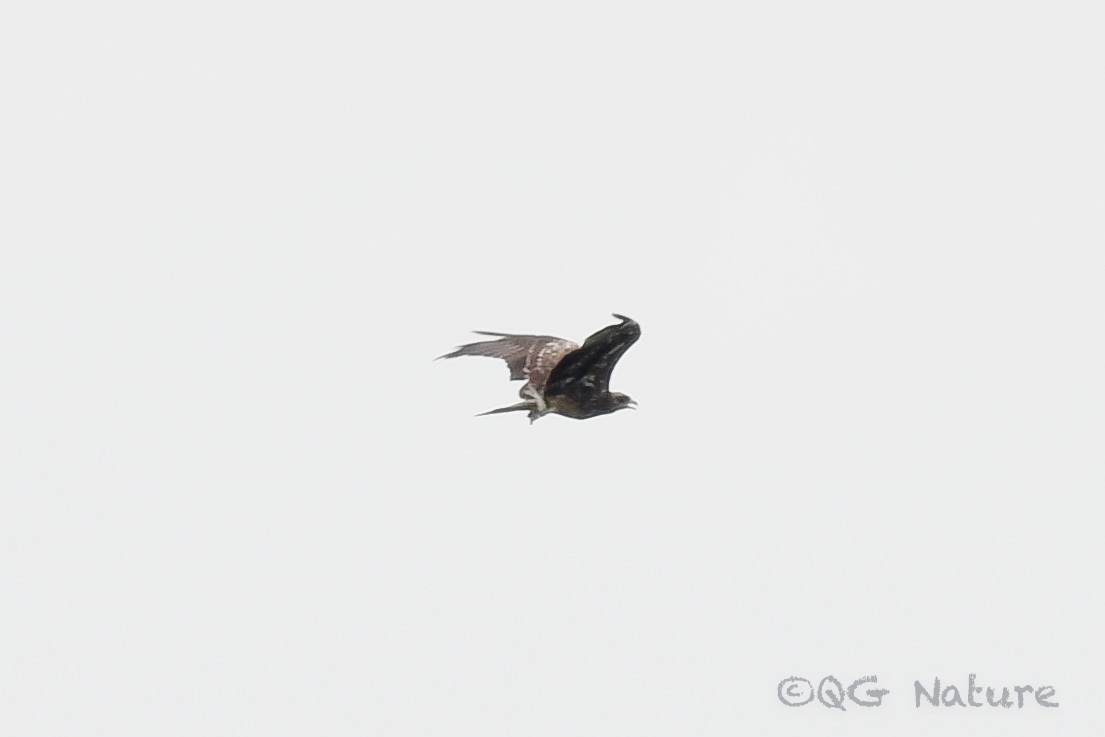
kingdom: Animalia
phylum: Chordata
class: Aves
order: Accipitriformes
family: Accipitridae
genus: Milvus
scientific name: Milvus migrans
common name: Black kite
